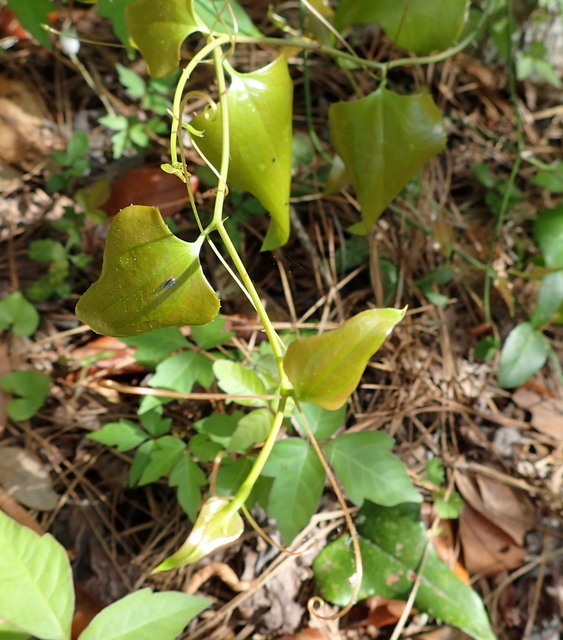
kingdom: Plantae
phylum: Tracheophyta
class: Liliopsida
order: Liliales
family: Smilacaceae
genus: Smilax
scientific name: Smilax bona-nox
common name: Catbrier
